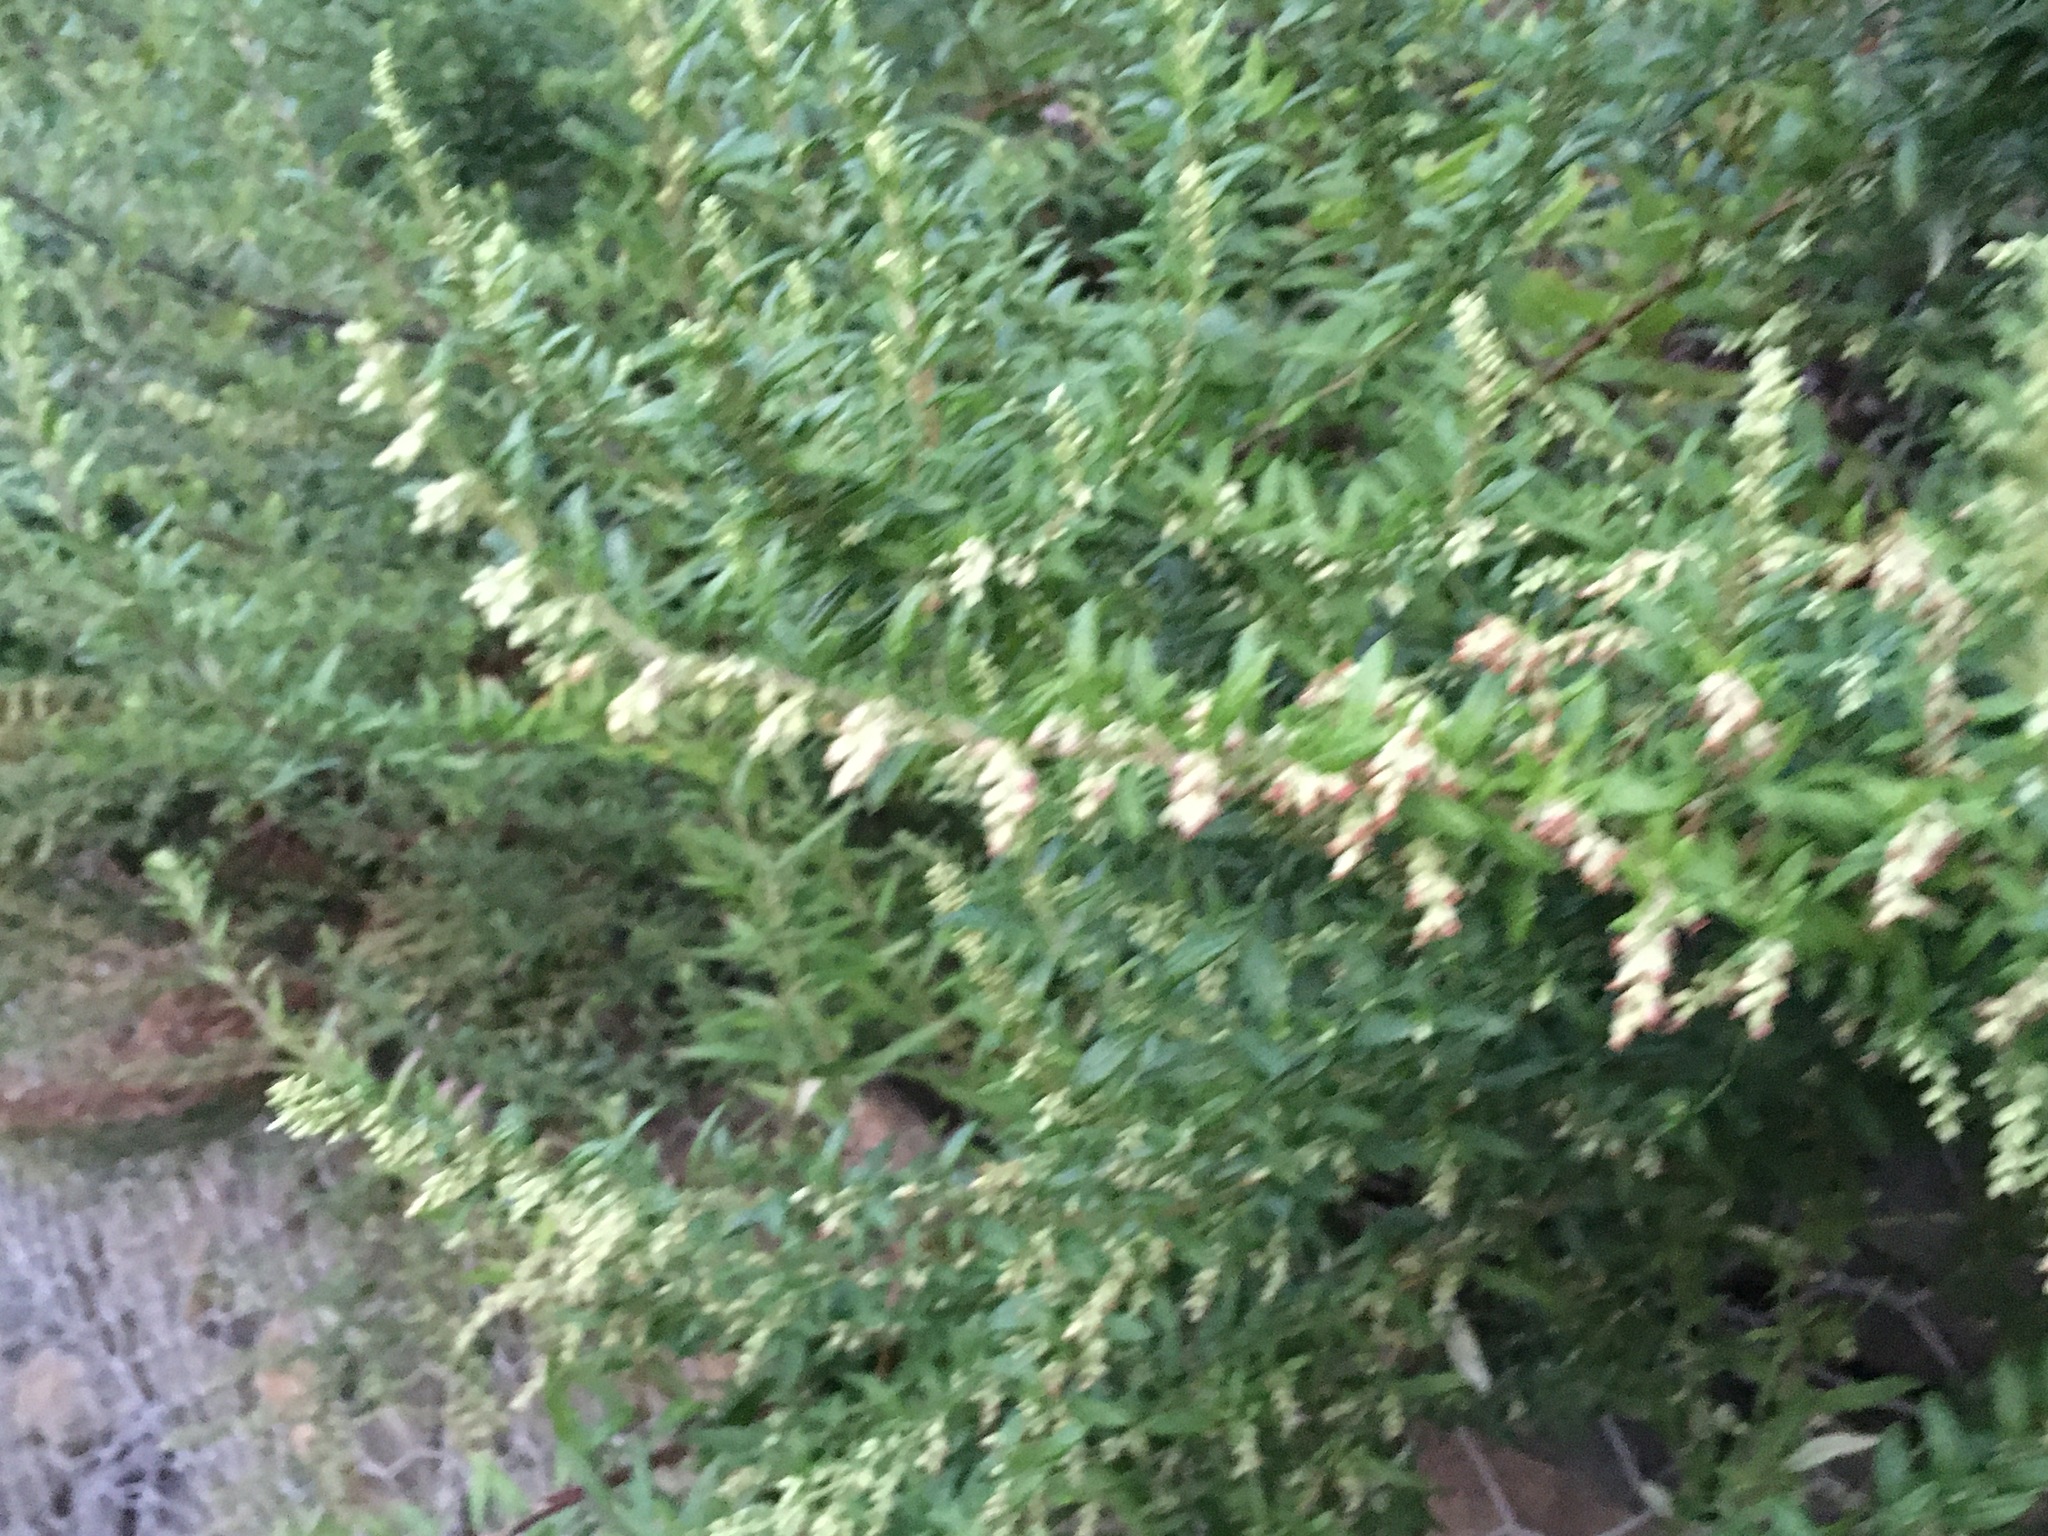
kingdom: Plantae
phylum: Tracheophyta
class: Magnoliopsida
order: Asterales
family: Asteraceae
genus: Artemisia
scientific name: Artemisia vulgaris
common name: Mugwort
